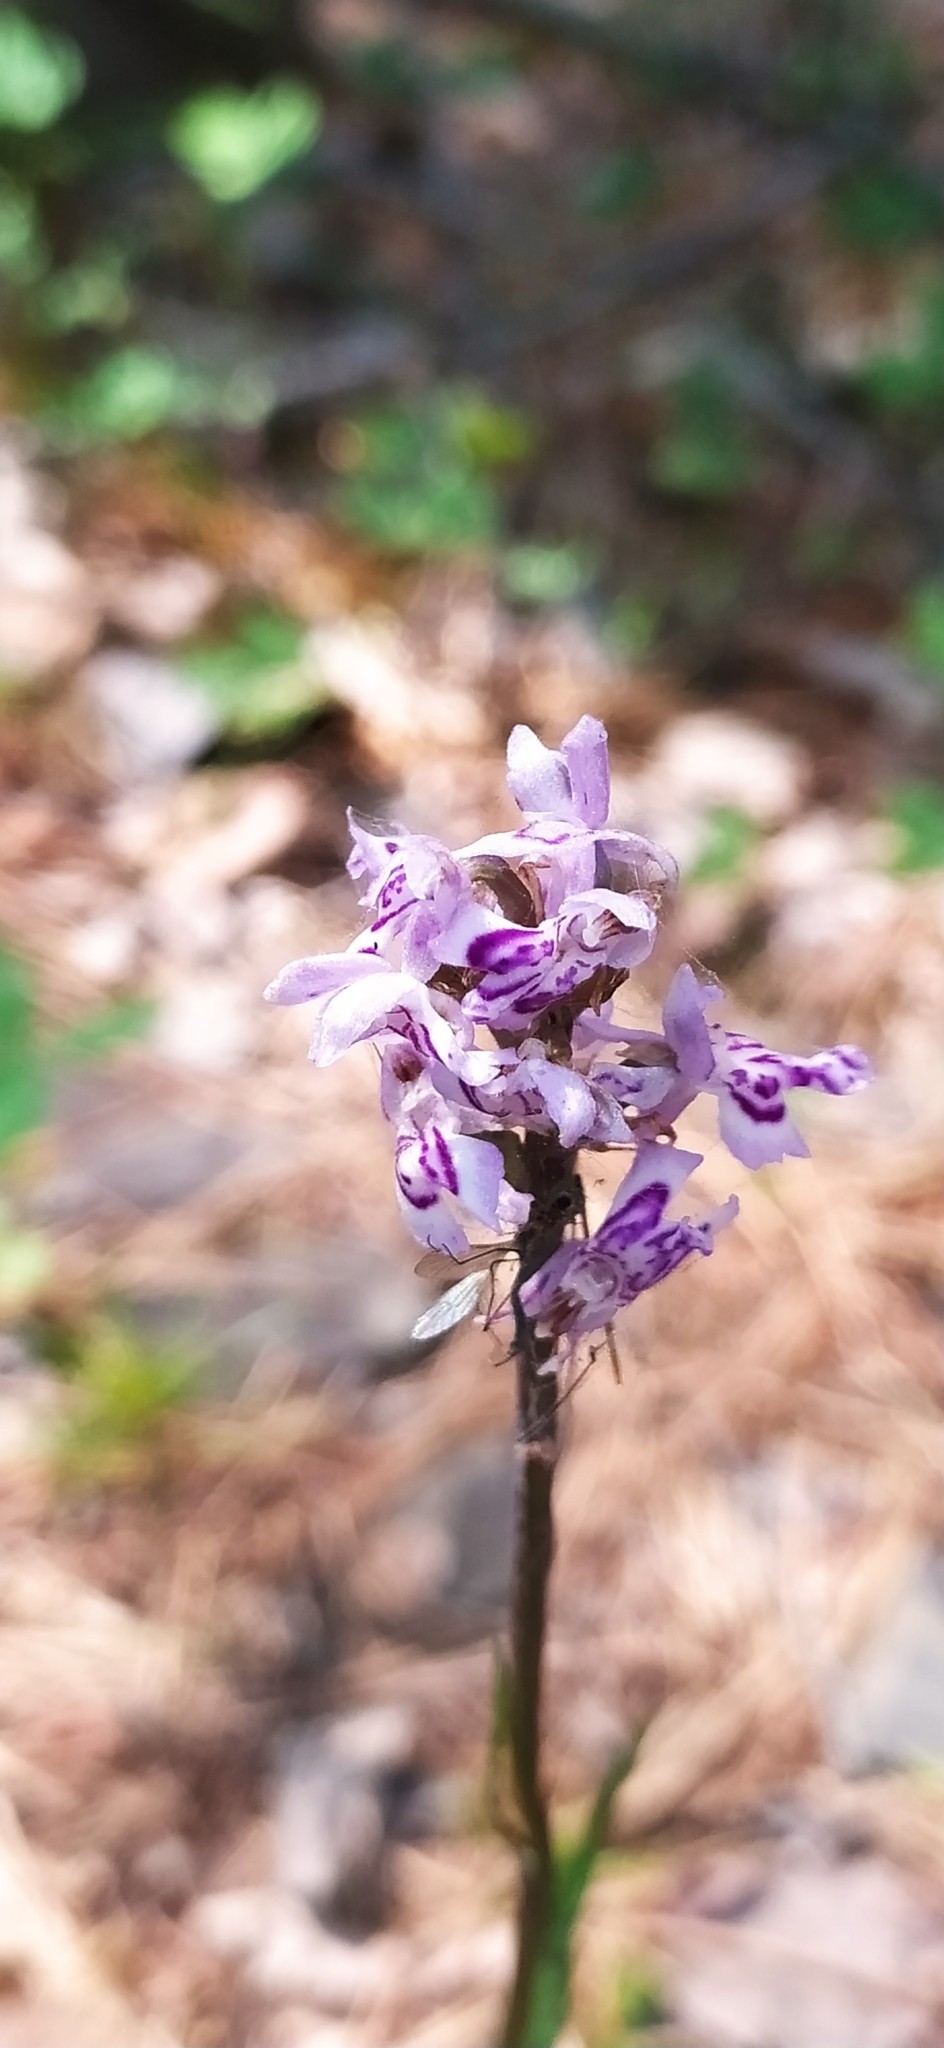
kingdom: Plantae
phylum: Tracheophyta
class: Liliopsida
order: Asparagales
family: Orchidaceae
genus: Dactylorhiza
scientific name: Dactylorhiza maculata
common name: Heath spotted-orchid
